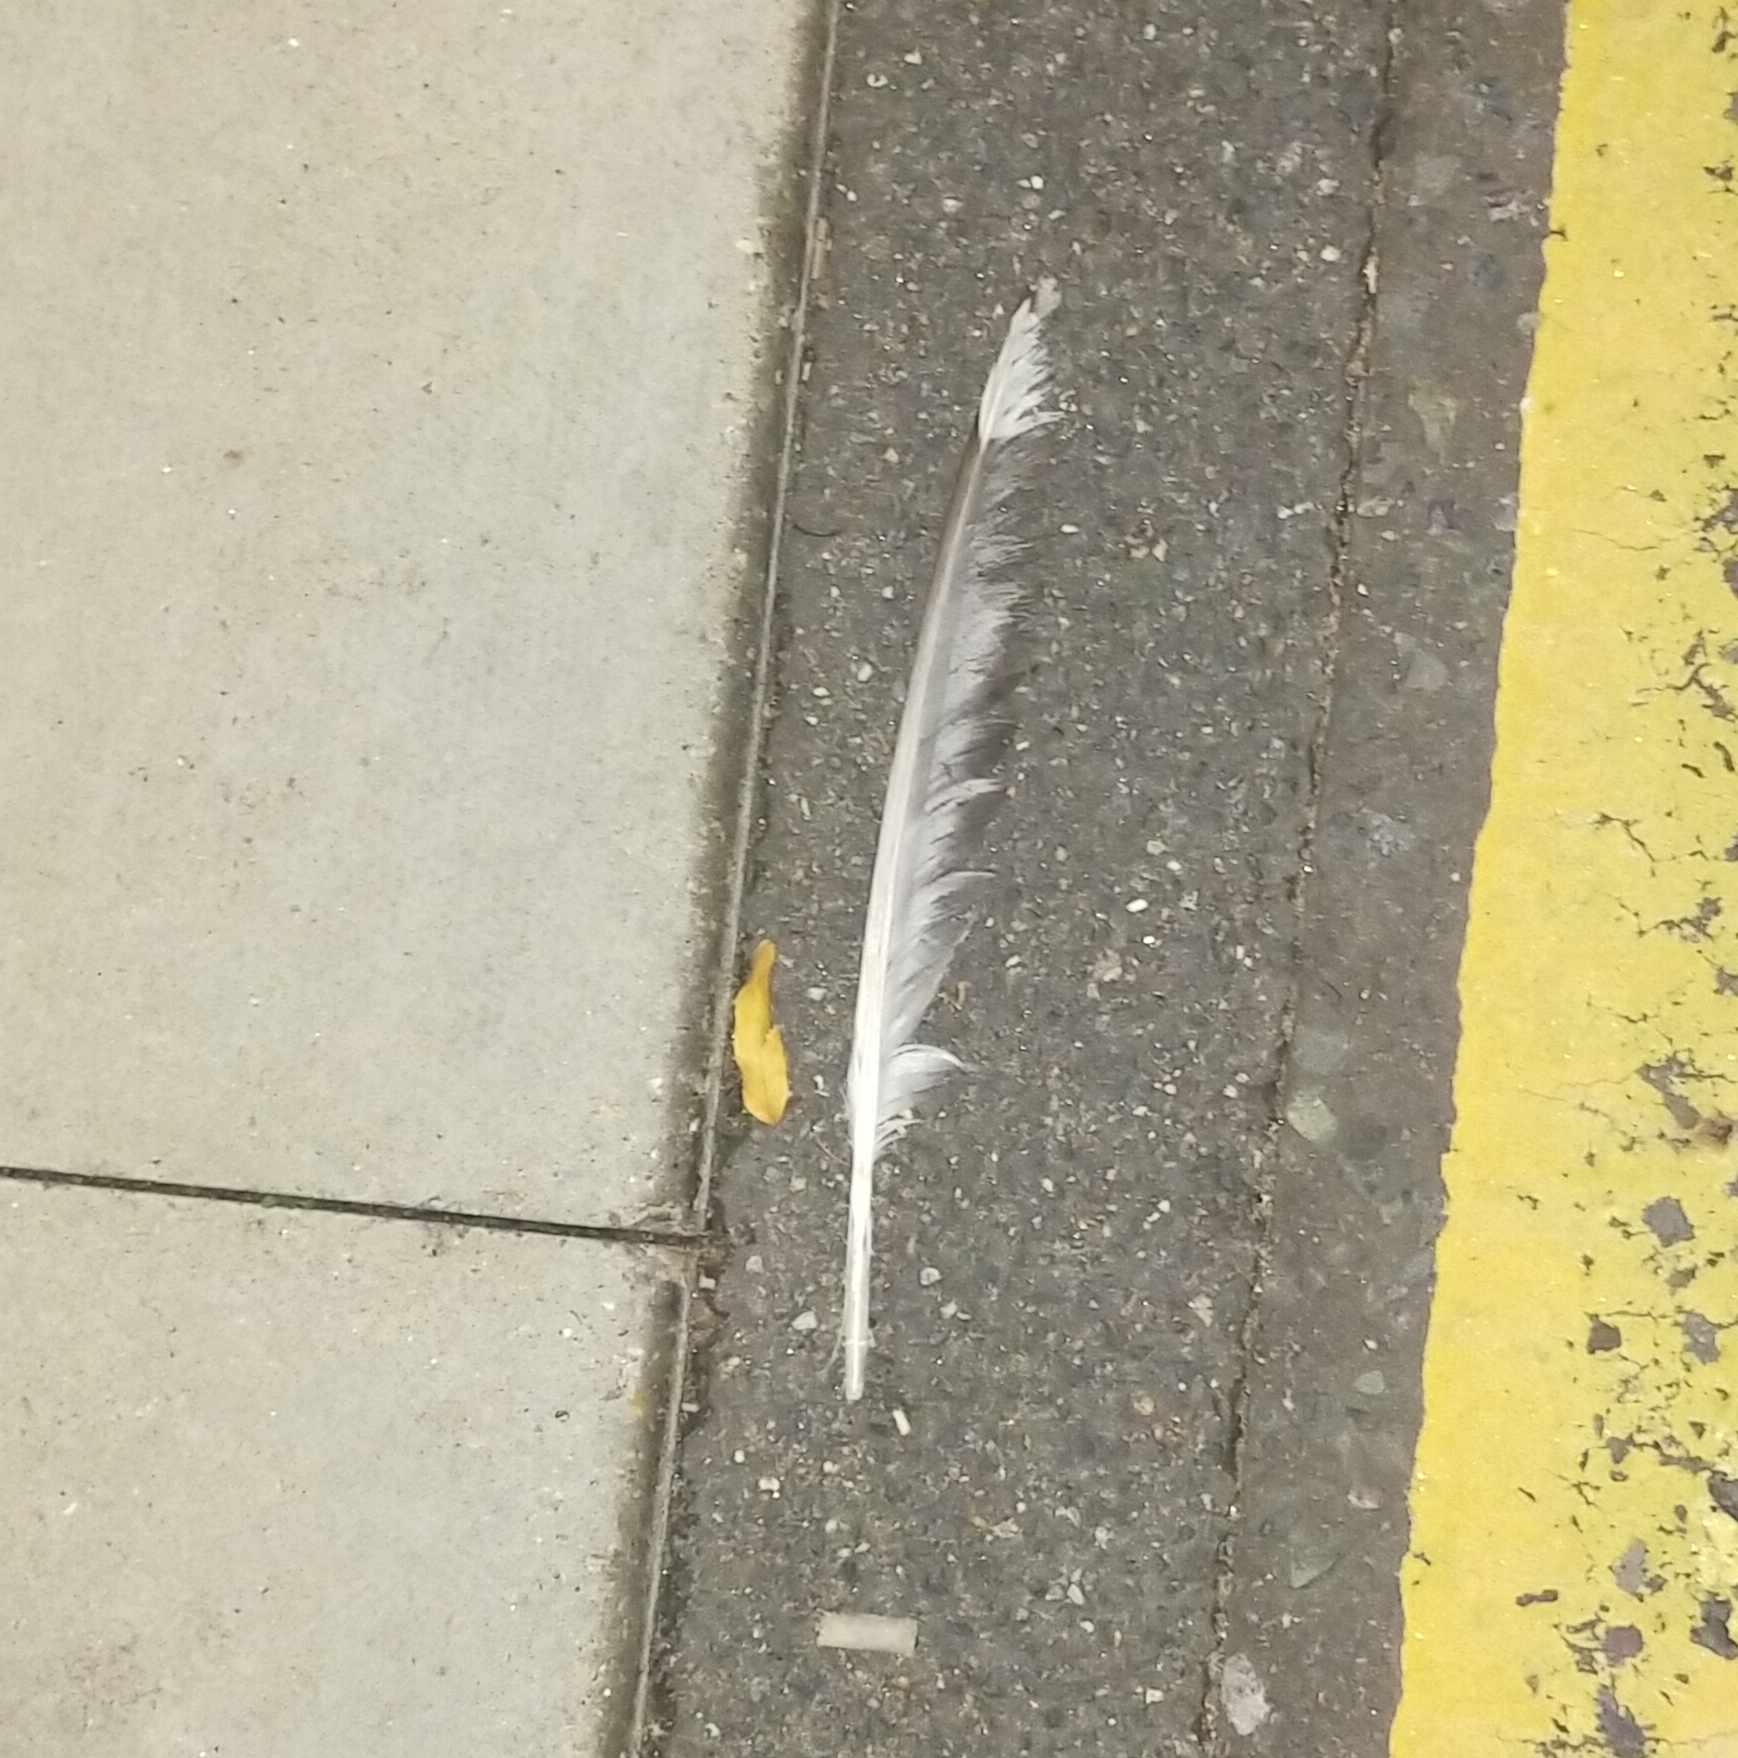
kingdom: Animalia
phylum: Chordata
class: Aves
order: Charadriiformes
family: Laridae
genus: Larus
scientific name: Larus argentatus
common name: Herring gull
